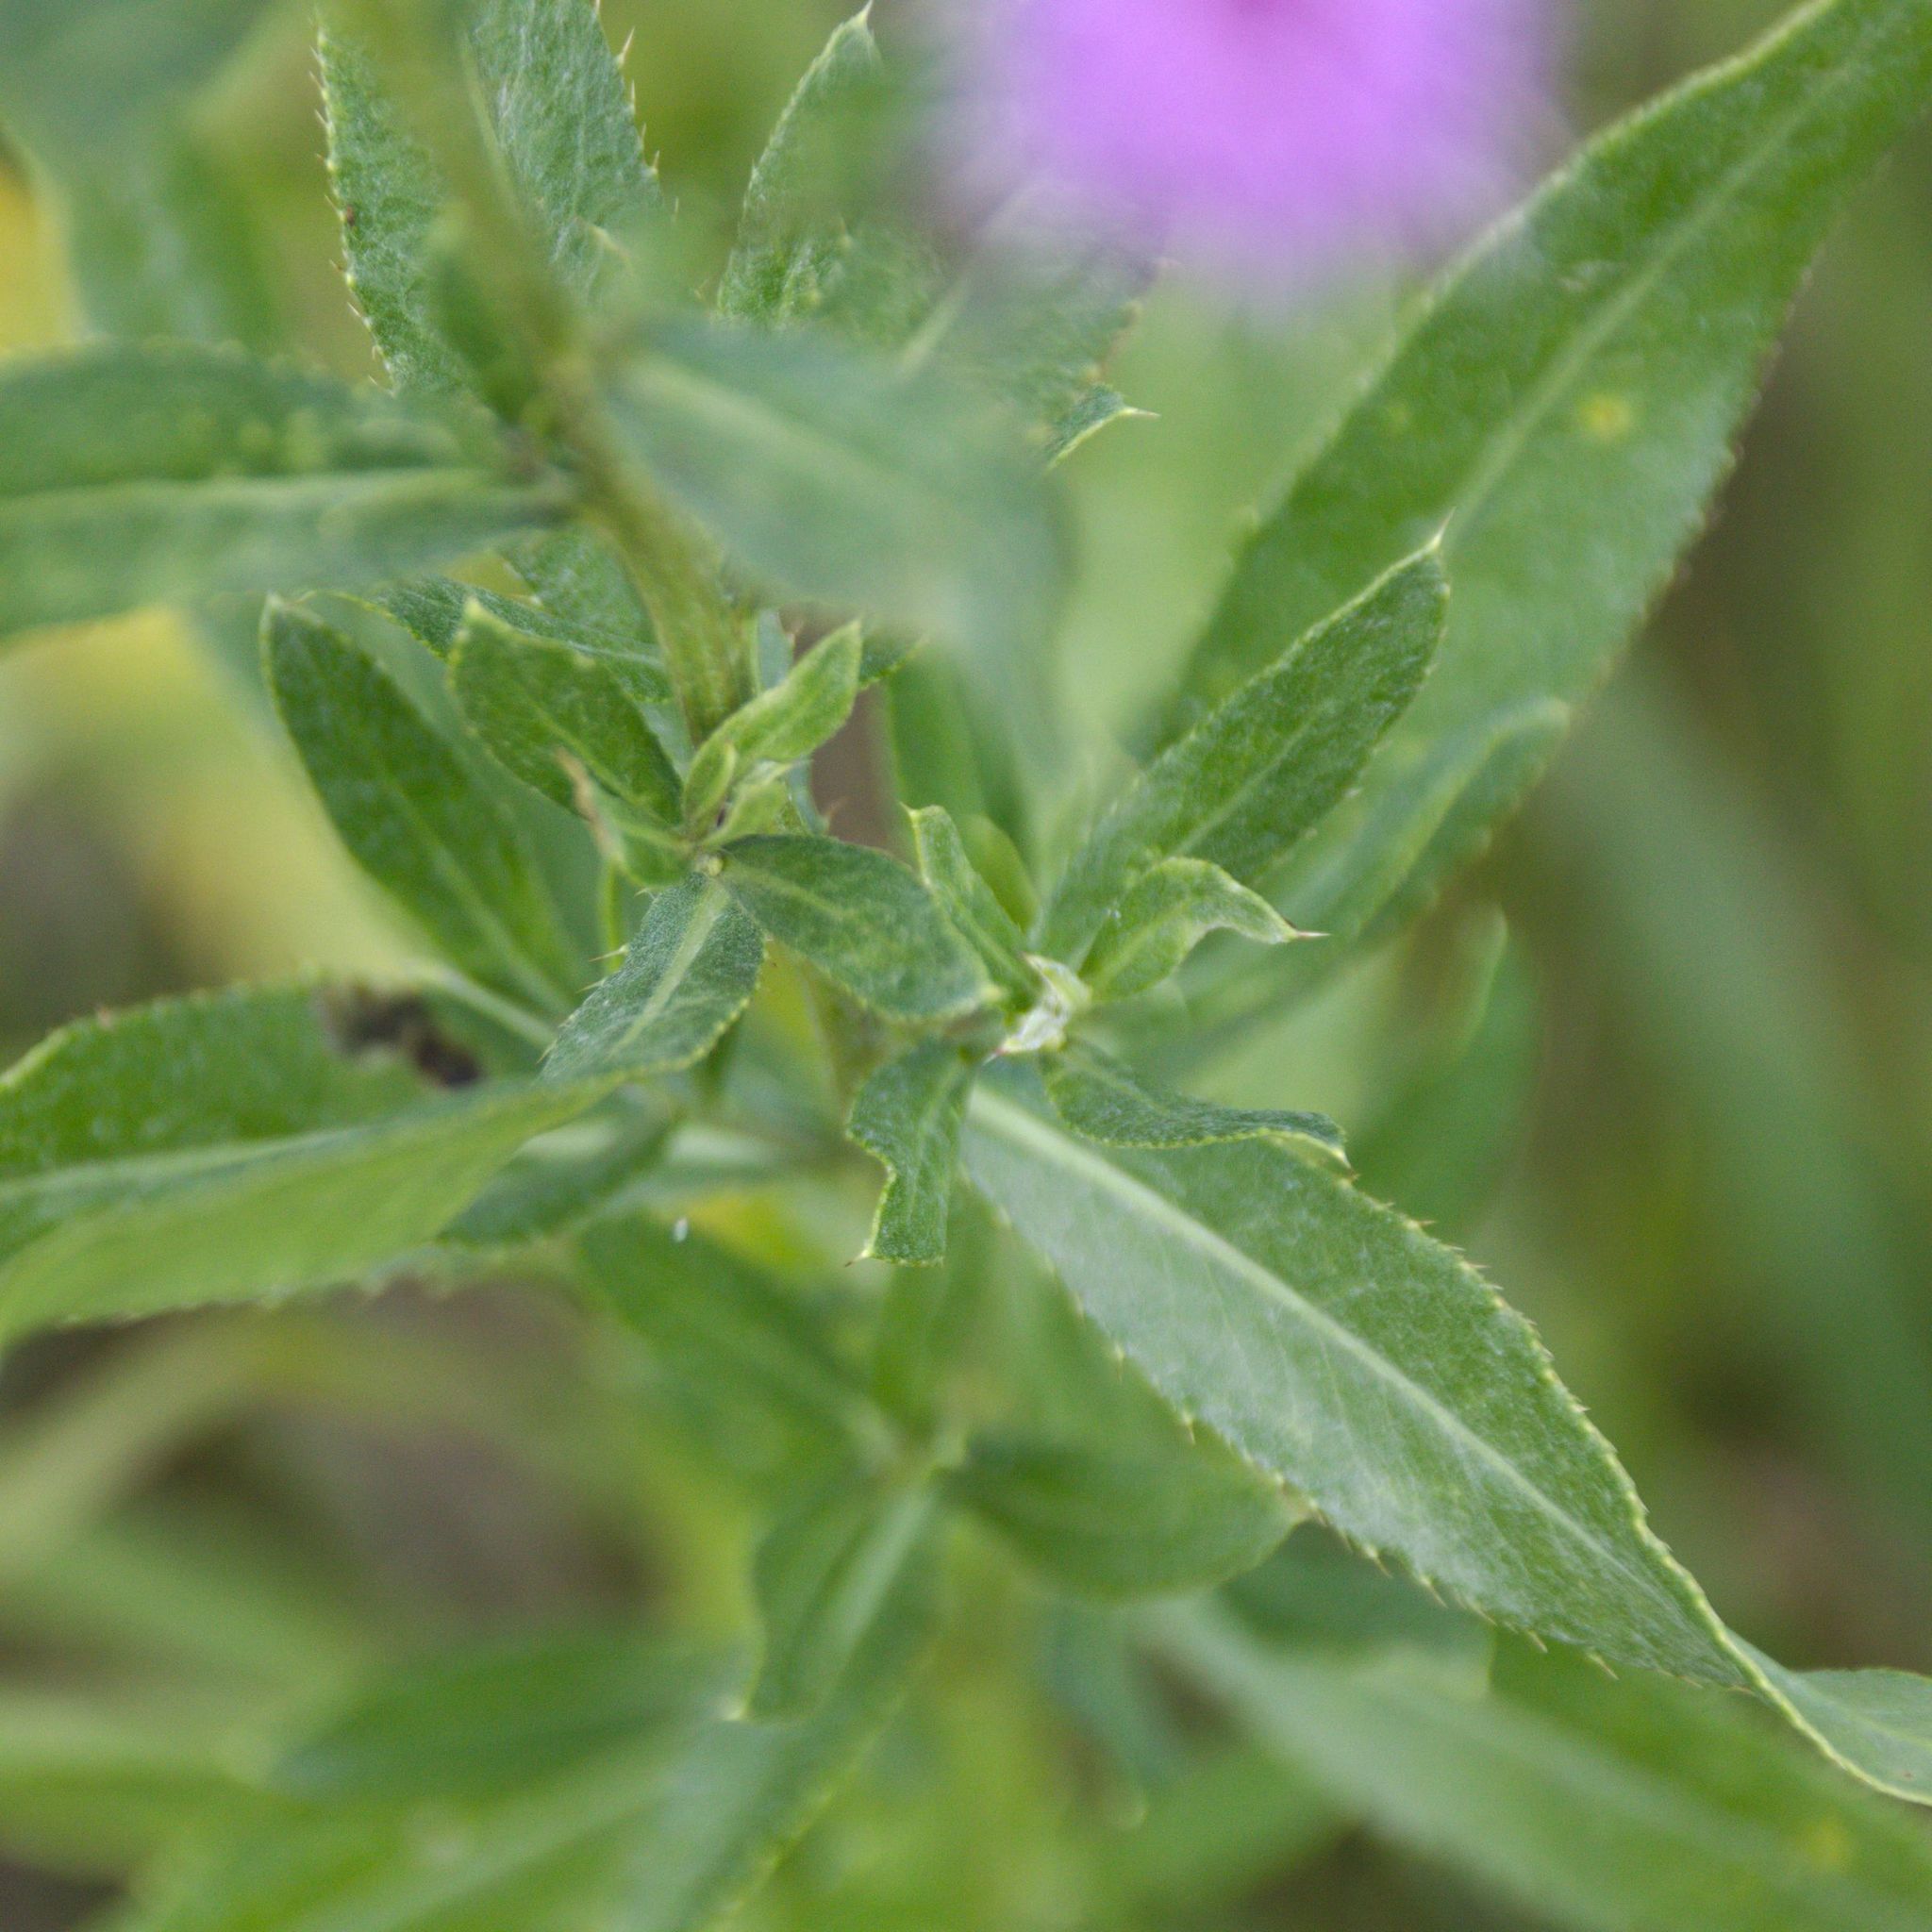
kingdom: Plantae
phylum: Tracheophyta
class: Magnoliopsida
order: Asterales
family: Asteraceae
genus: Cirsium
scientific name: Cirsium arvense
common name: Creeping thistle
